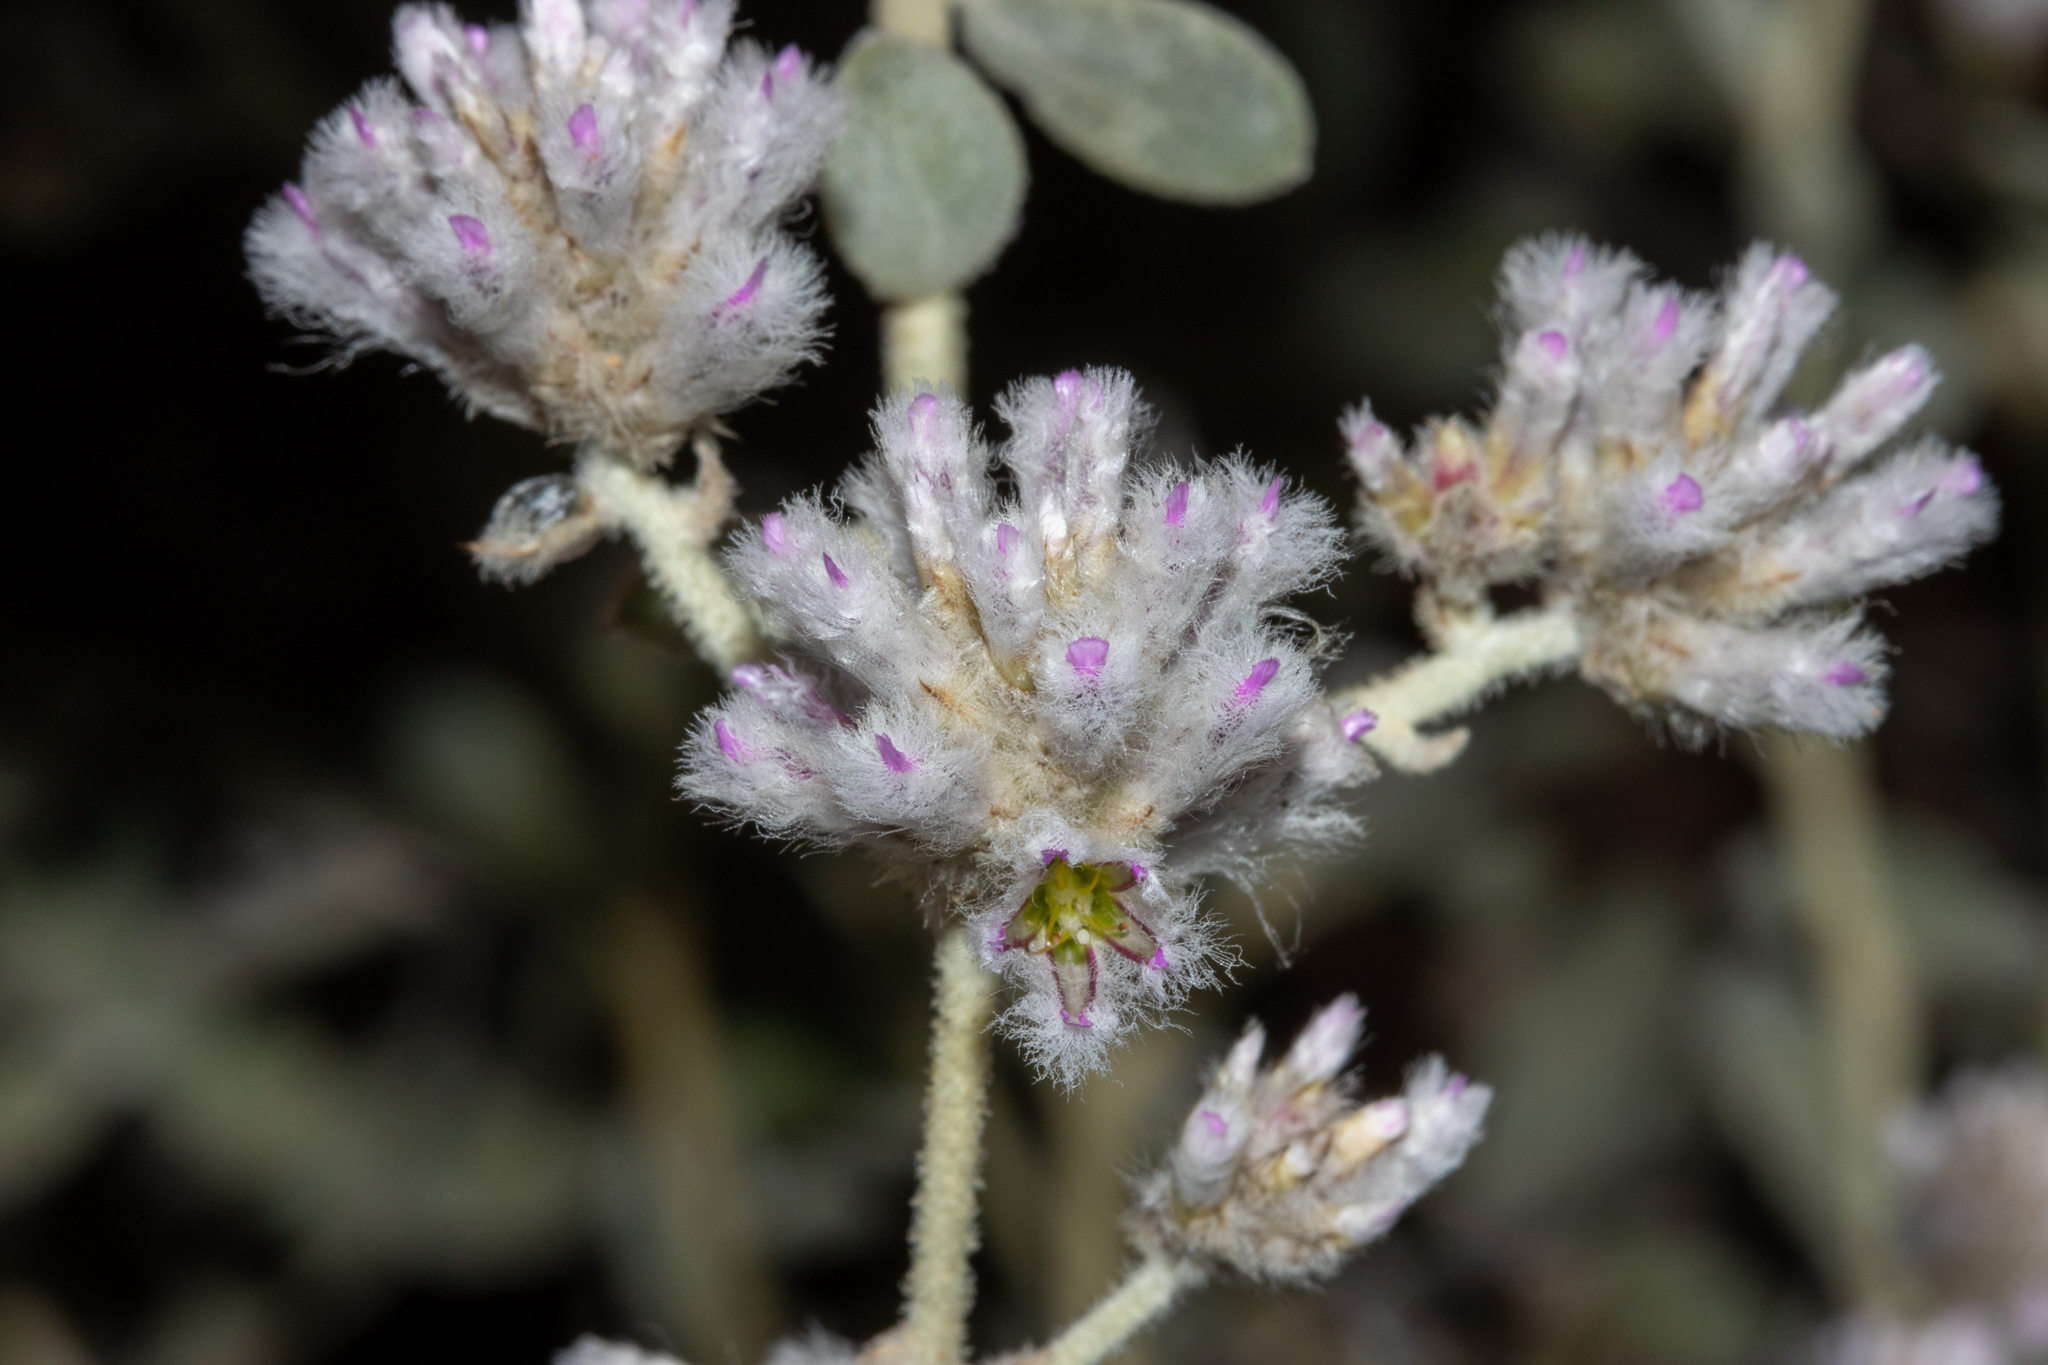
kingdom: Plantae
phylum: Tracheophyta
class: Magnoliopsida
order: Caryophyllales
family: Amaranthaceae
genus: Ptilotus
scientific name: Ptilotus obovatus
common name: Cottonbush
